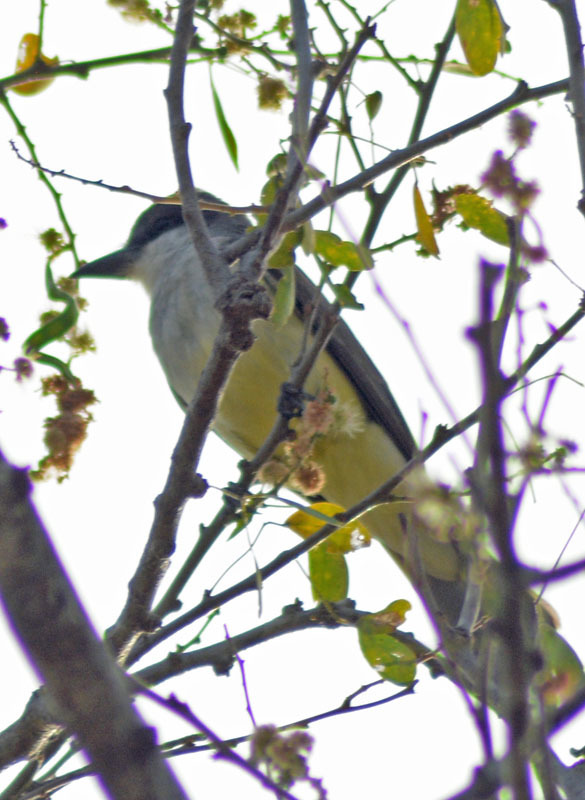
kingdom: Animalia
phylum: Chordata
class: Aves
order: Passeriformes
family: Tyrannidae
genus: Tyrannus
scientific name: Tyrannus crassirostris
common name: Thick-billed kingbird
